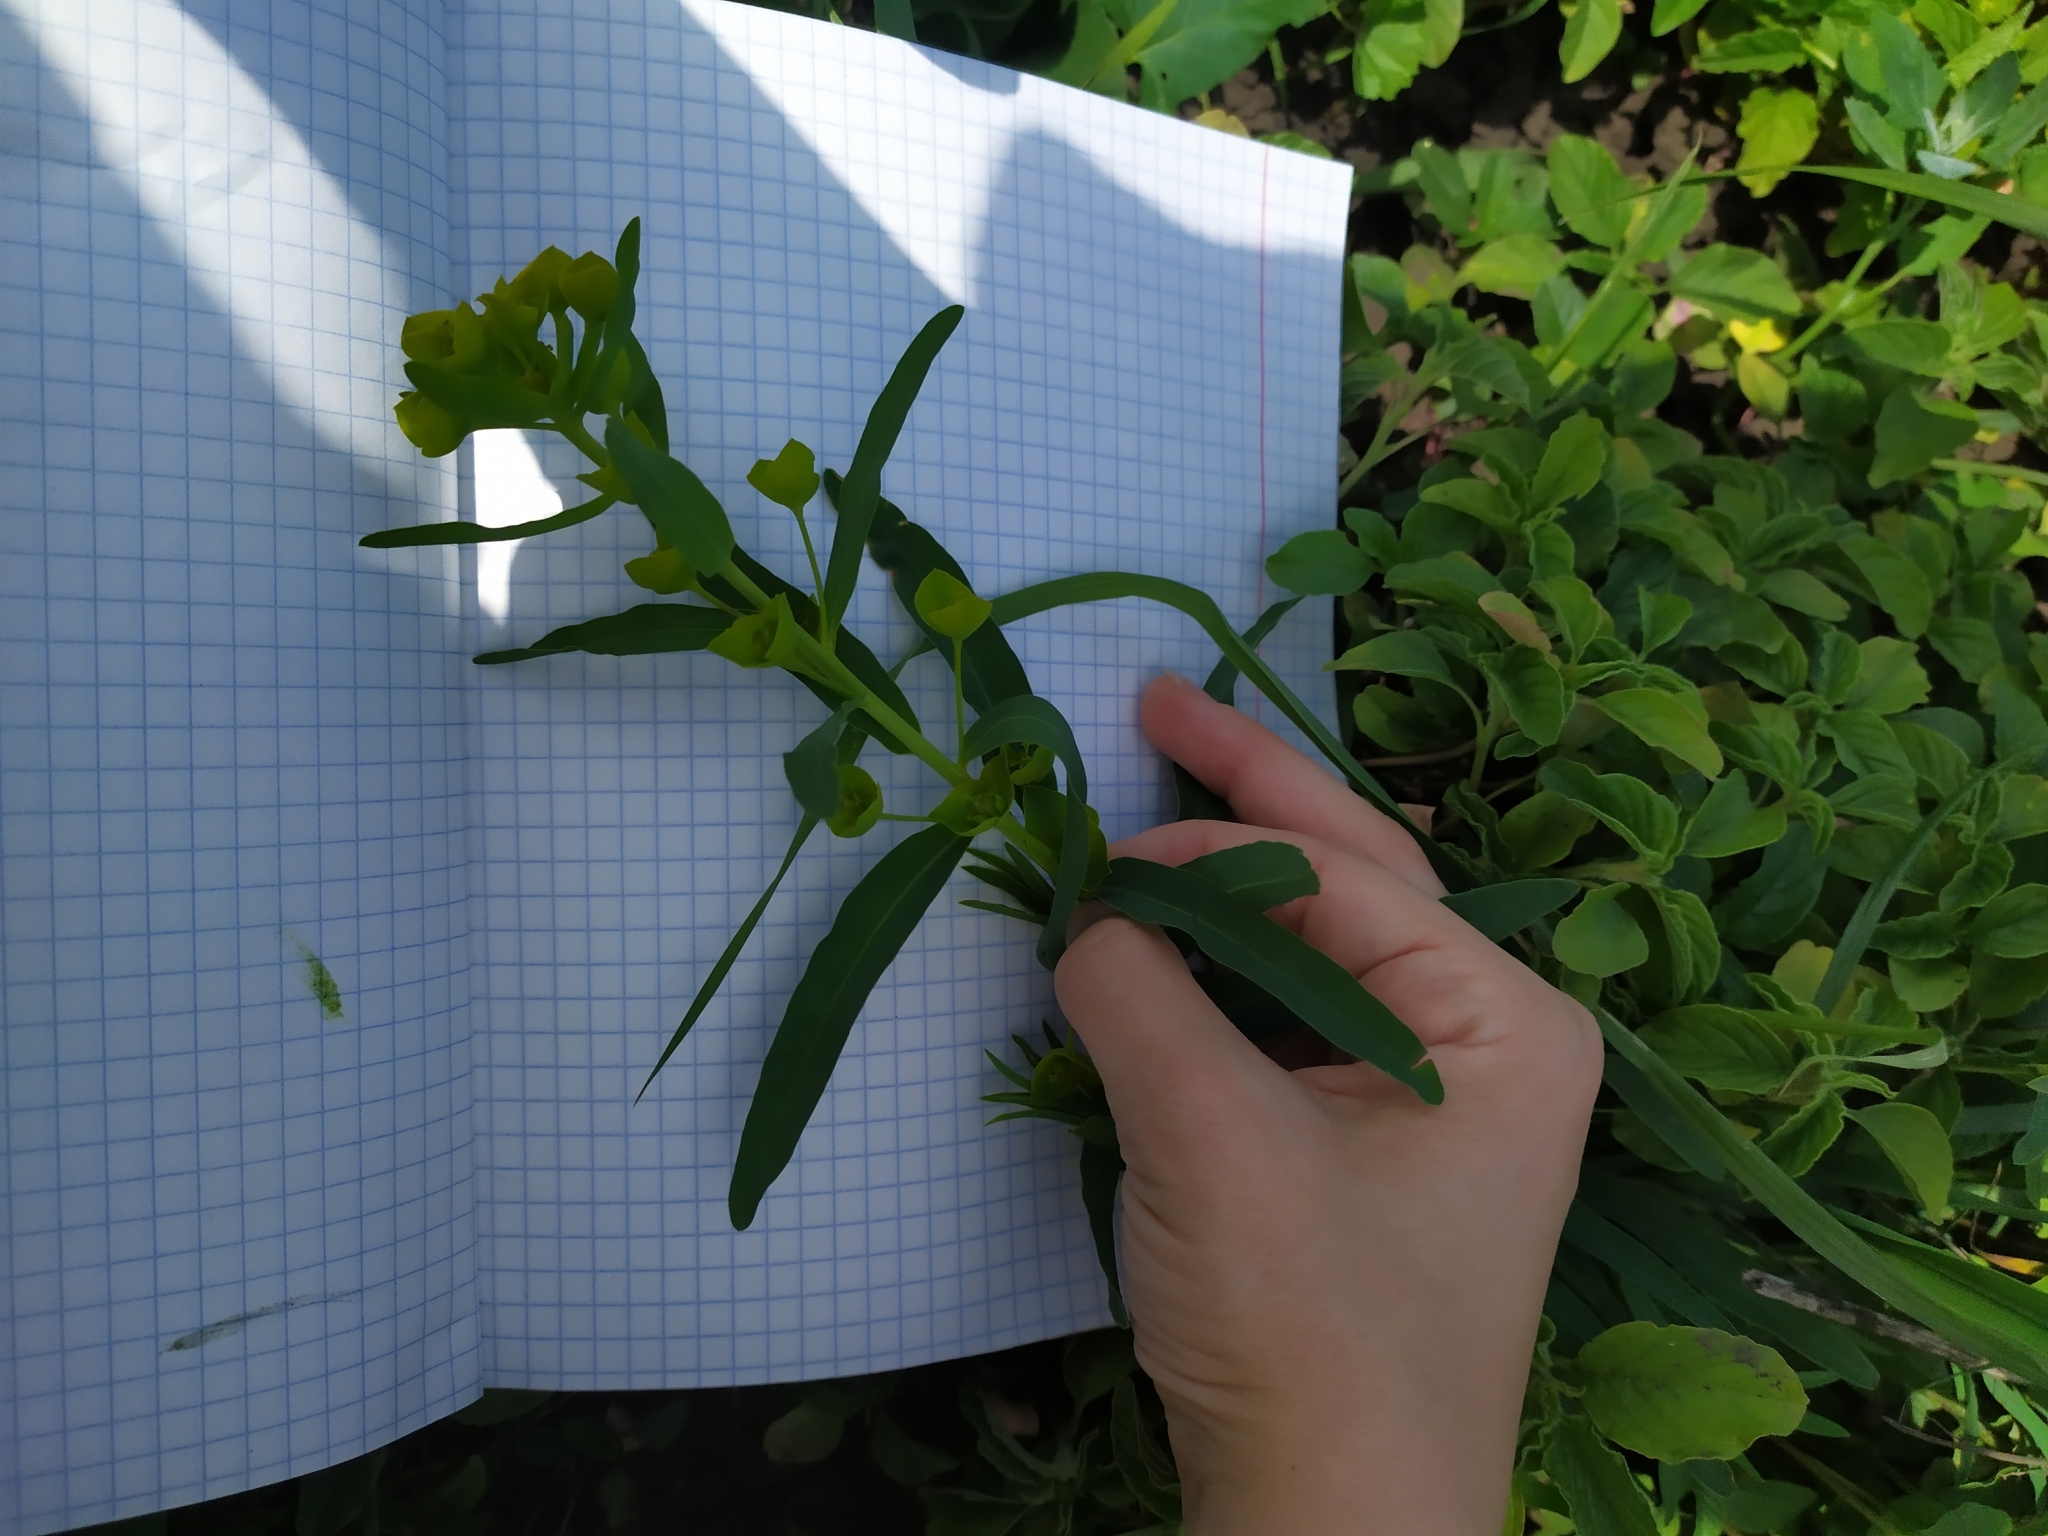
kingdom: Plantae
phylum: Tracheophyta
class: Magnoliopsida
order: Malpighiales
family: Euphorbiaceae
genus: Euphorbia
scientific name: Euphorbia virgata
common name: Leafy spurge
